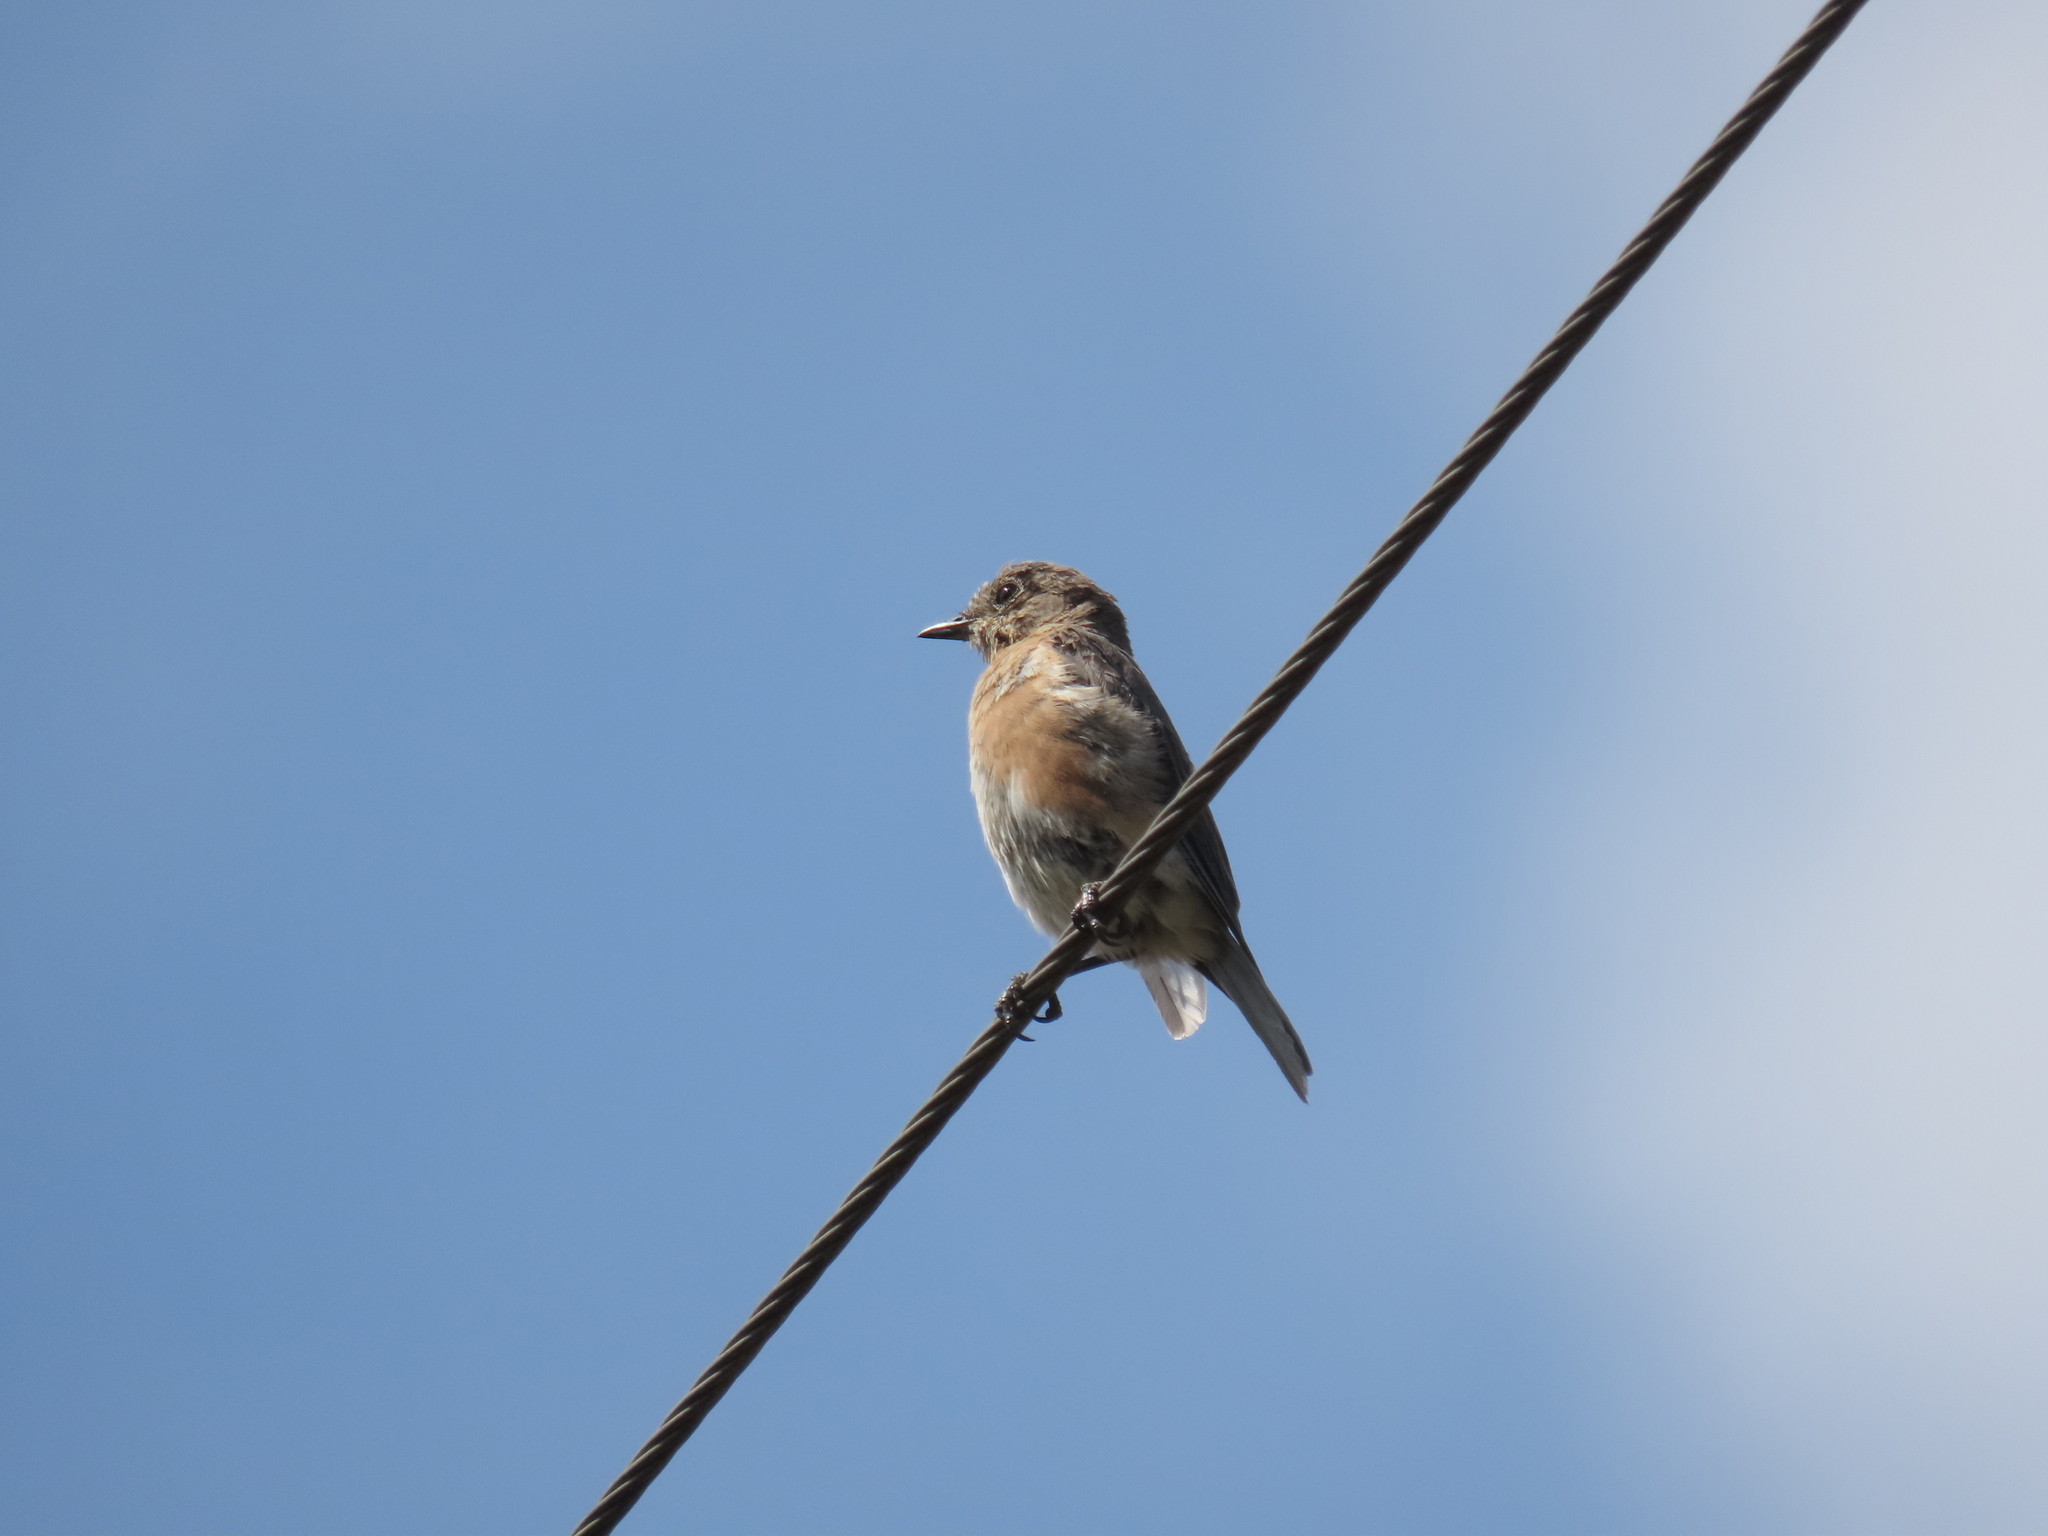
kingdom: Animalia
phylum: Chordata
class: Aves
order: Passeriformes
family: Turdidae
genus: Sialia
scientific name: Sialia sialis
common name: Eastern bluebird
